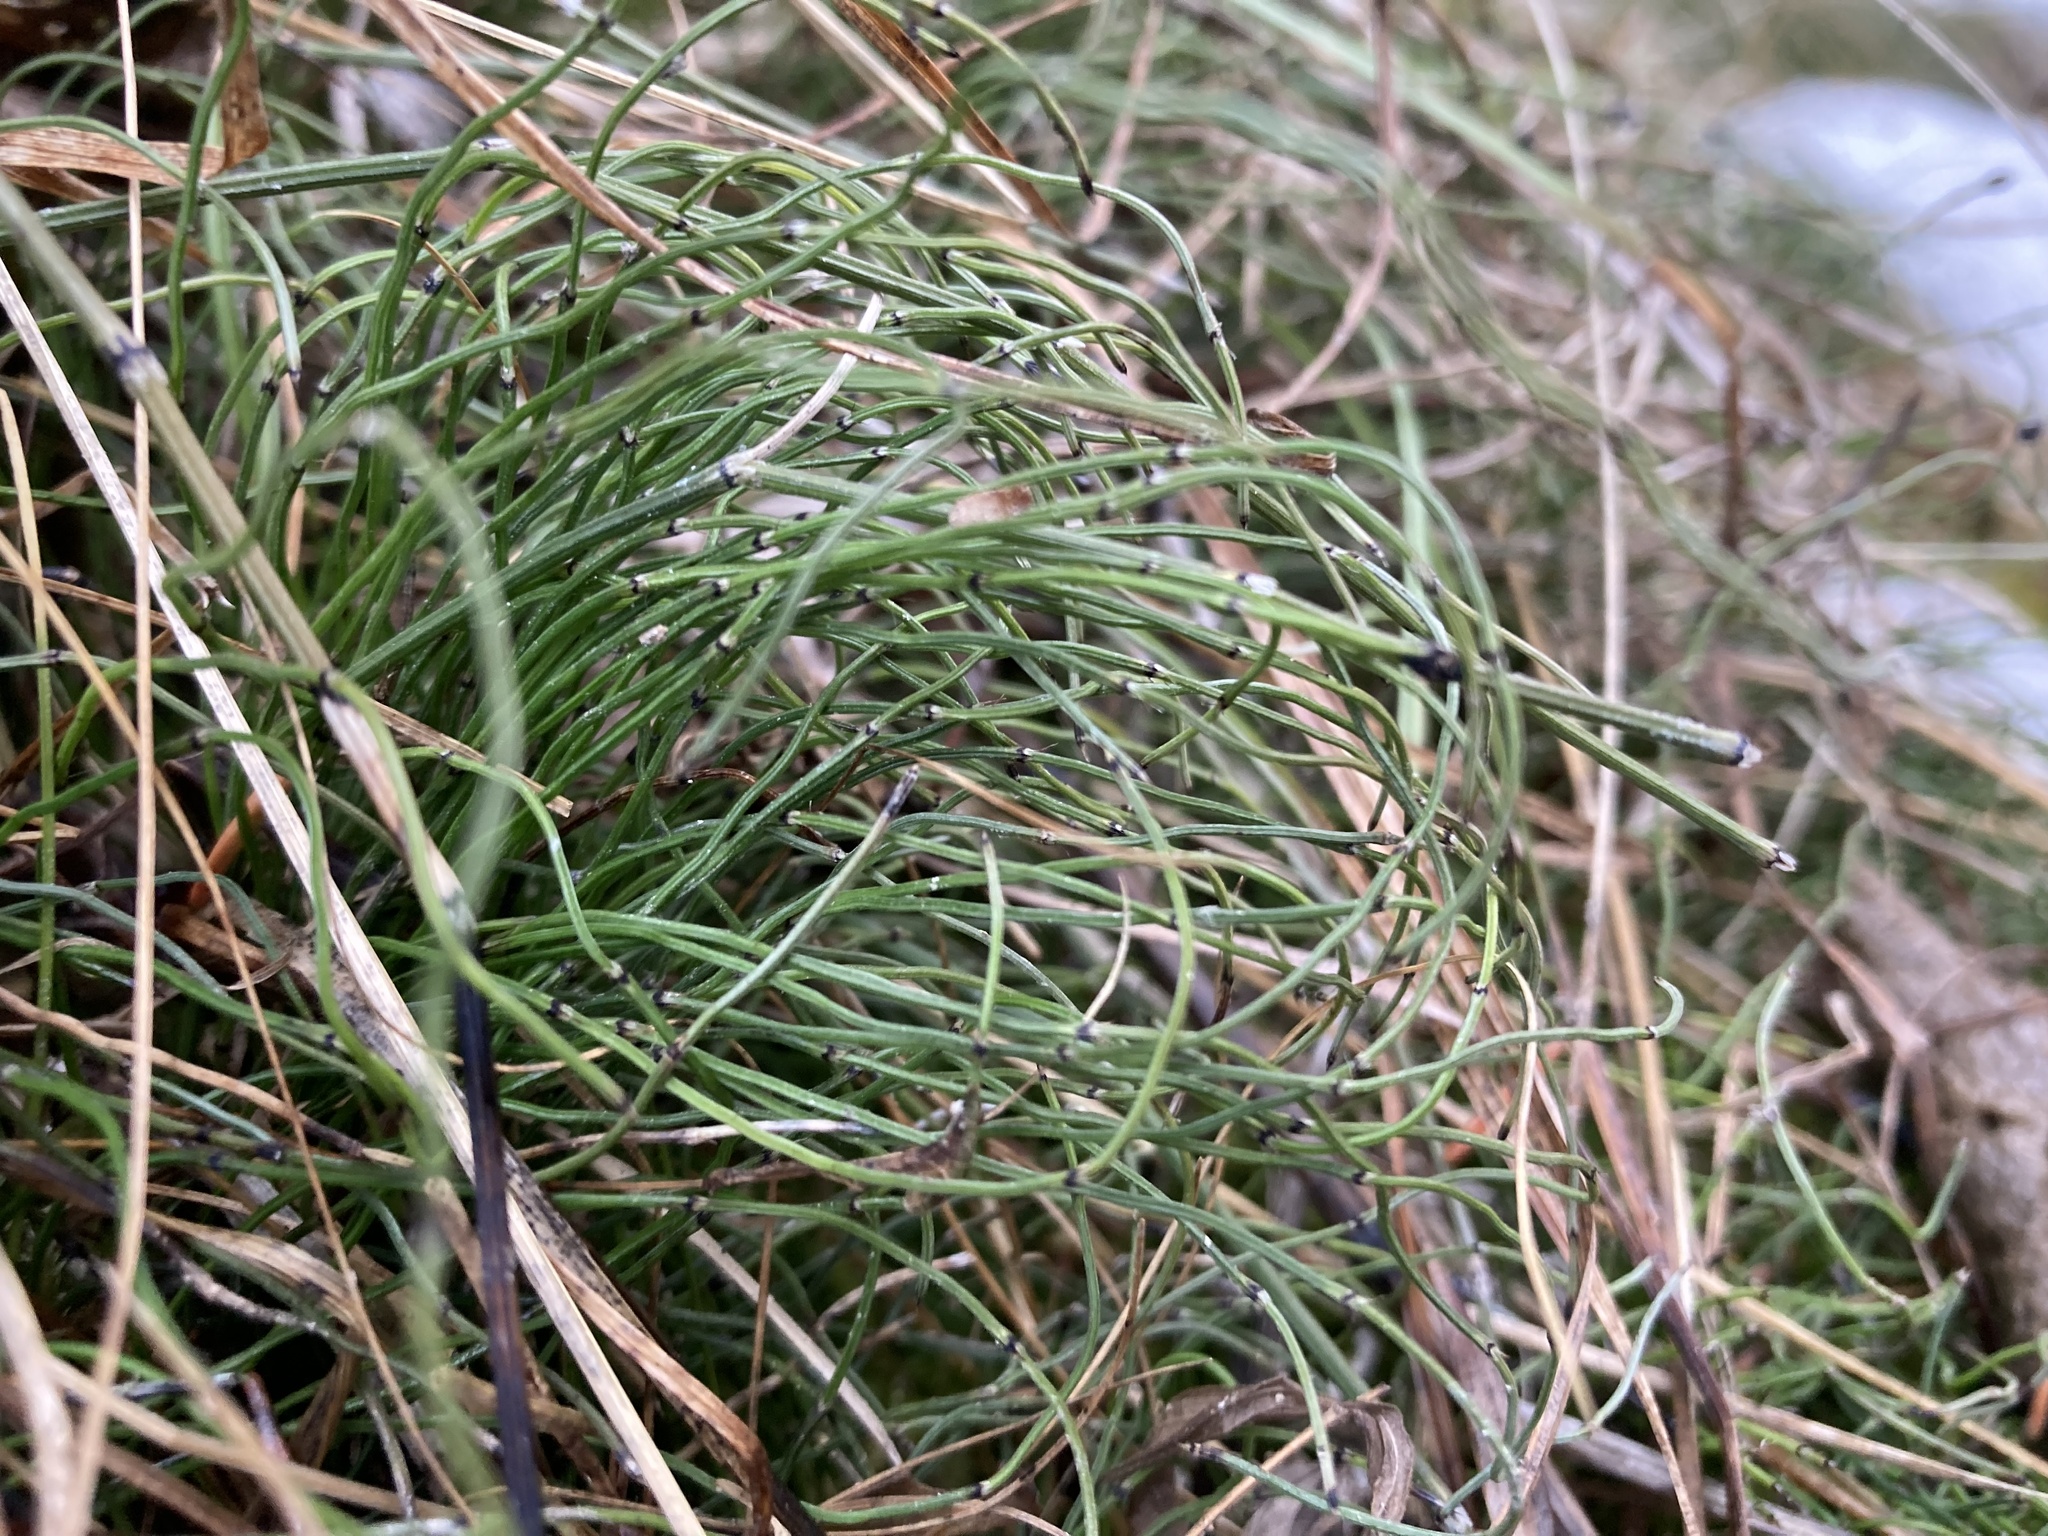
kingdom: Plantae
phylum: Tracheophyta
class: Polypodiopsida
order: Equisetales
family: Equisetaceae
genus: Equisetum
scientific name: Equisetum scirpoides
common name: Delicate horsetail
